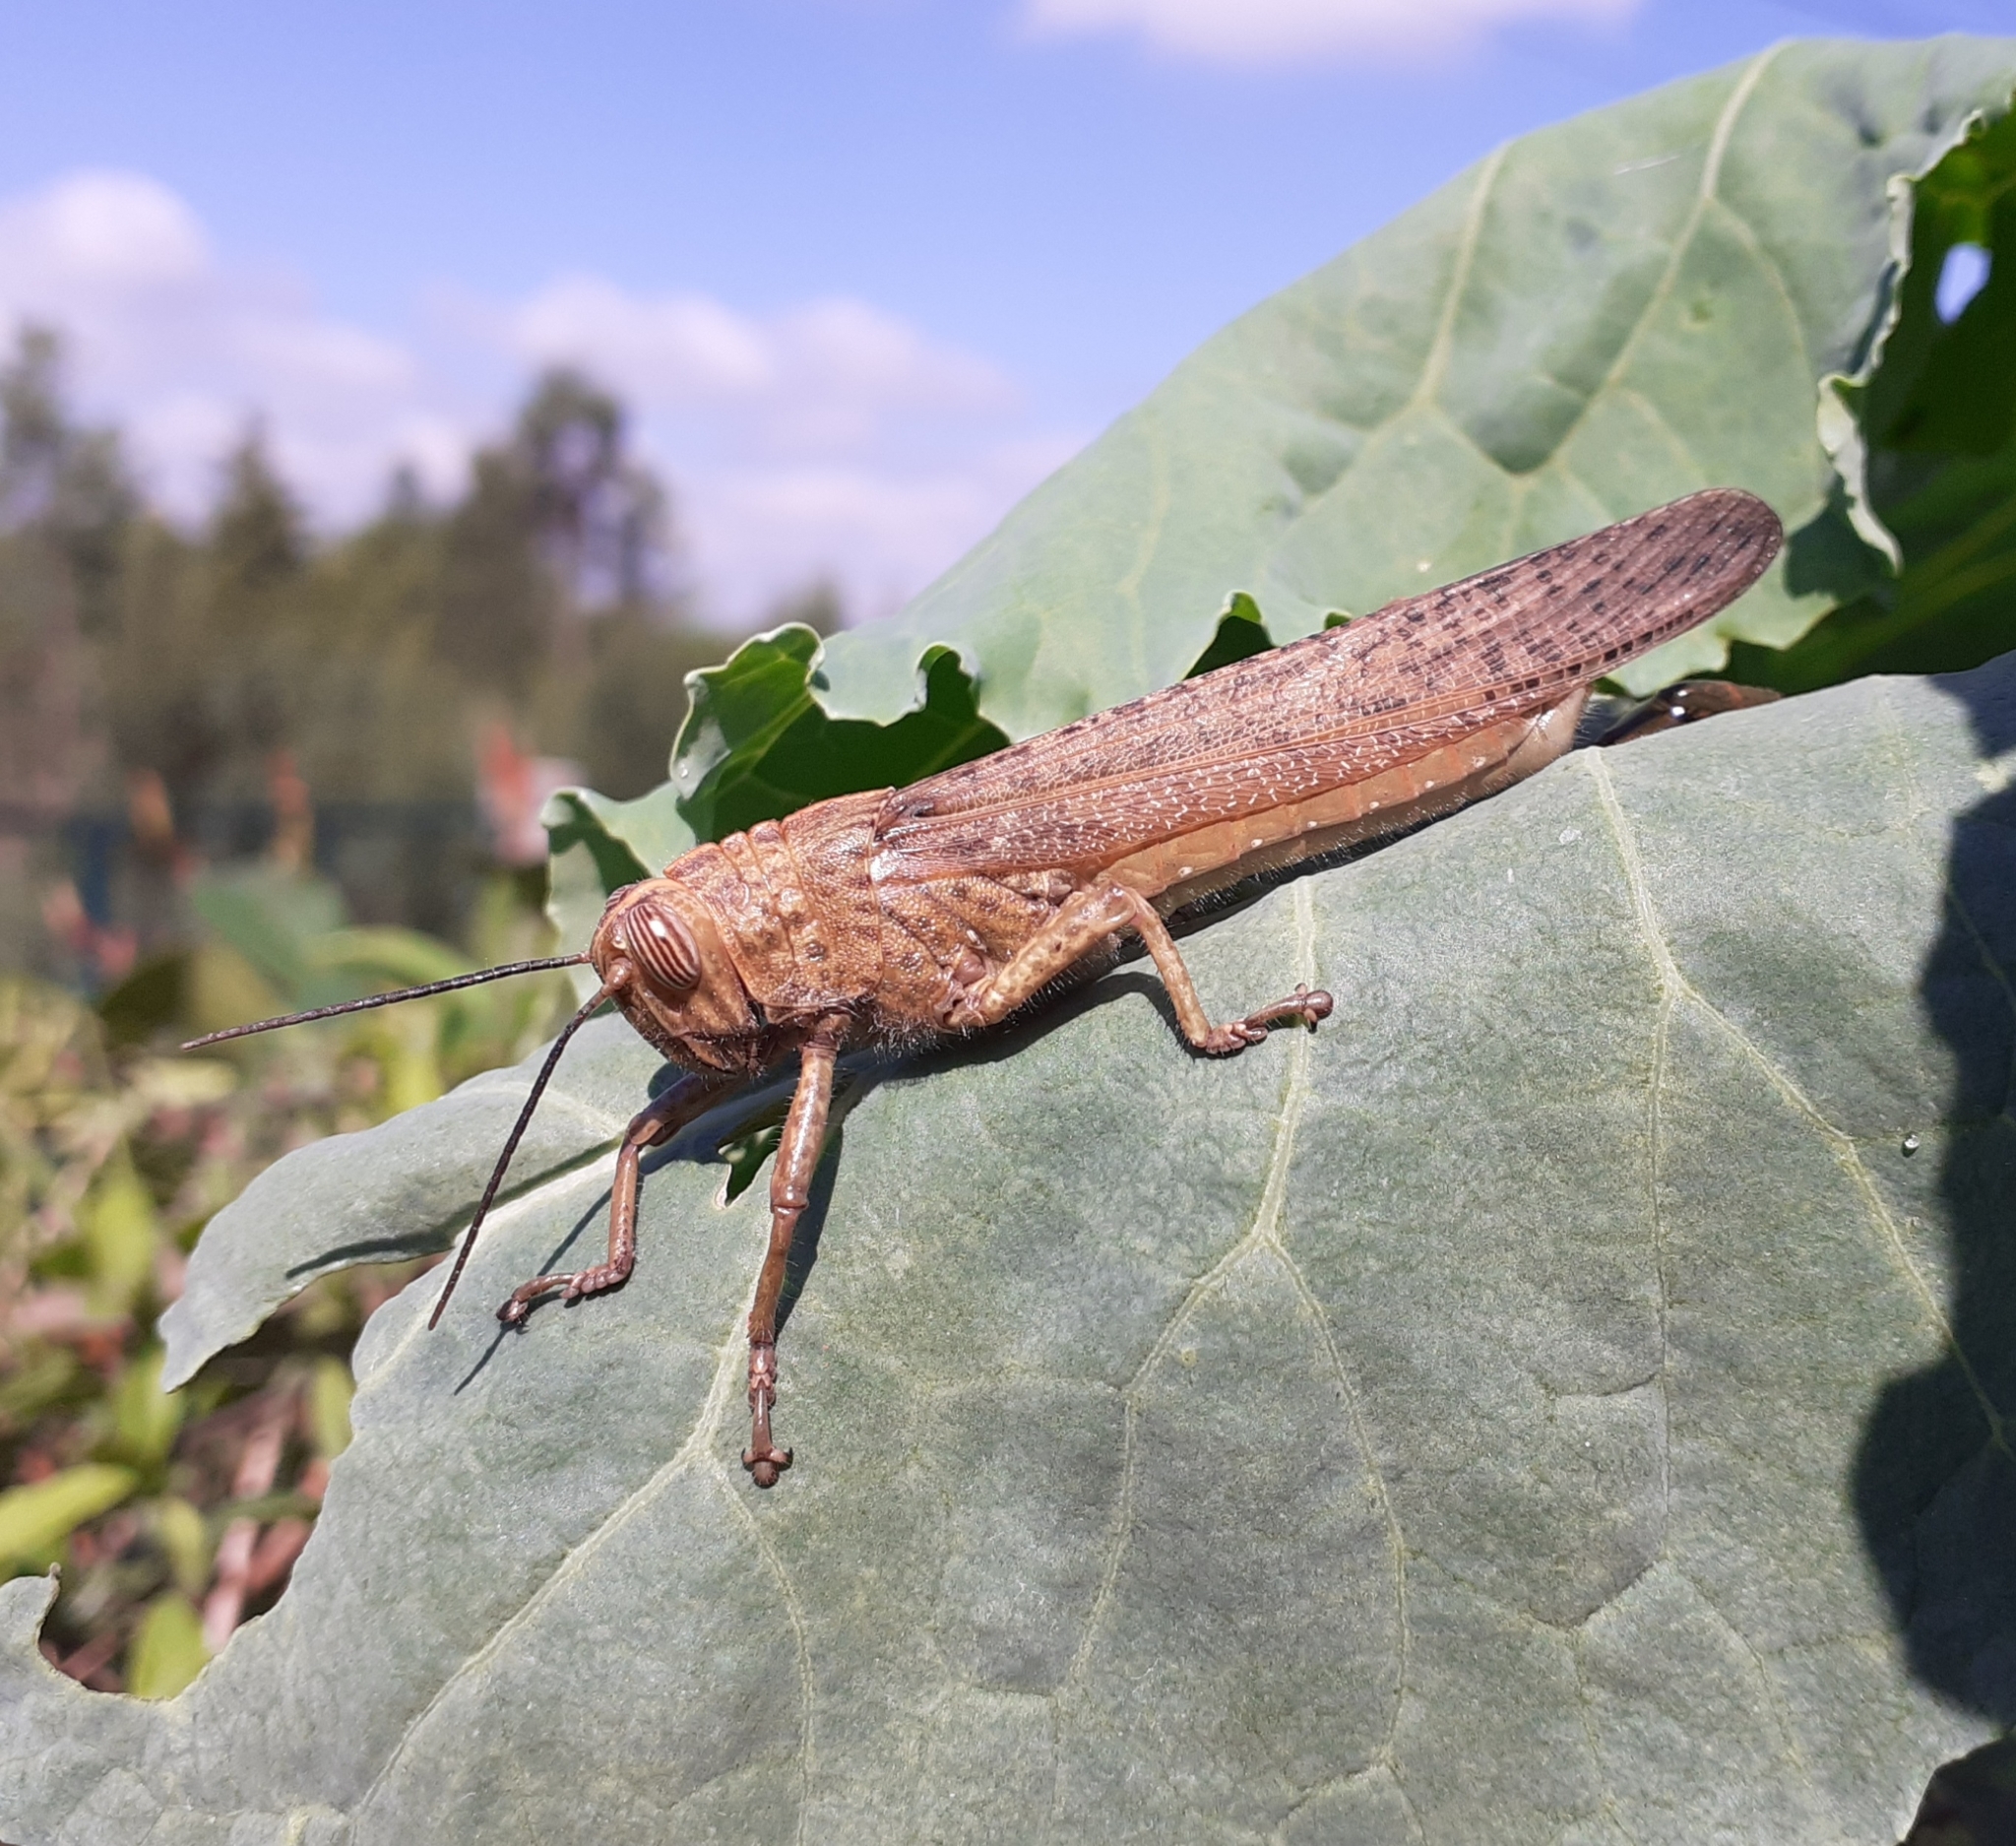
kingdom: Animalia
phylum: Arthropoda
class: Insecta
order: Orthoptera
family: Acrididae
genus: Anacridium
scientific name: Anacridium aegyptium
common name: Egyptian grasshopper
